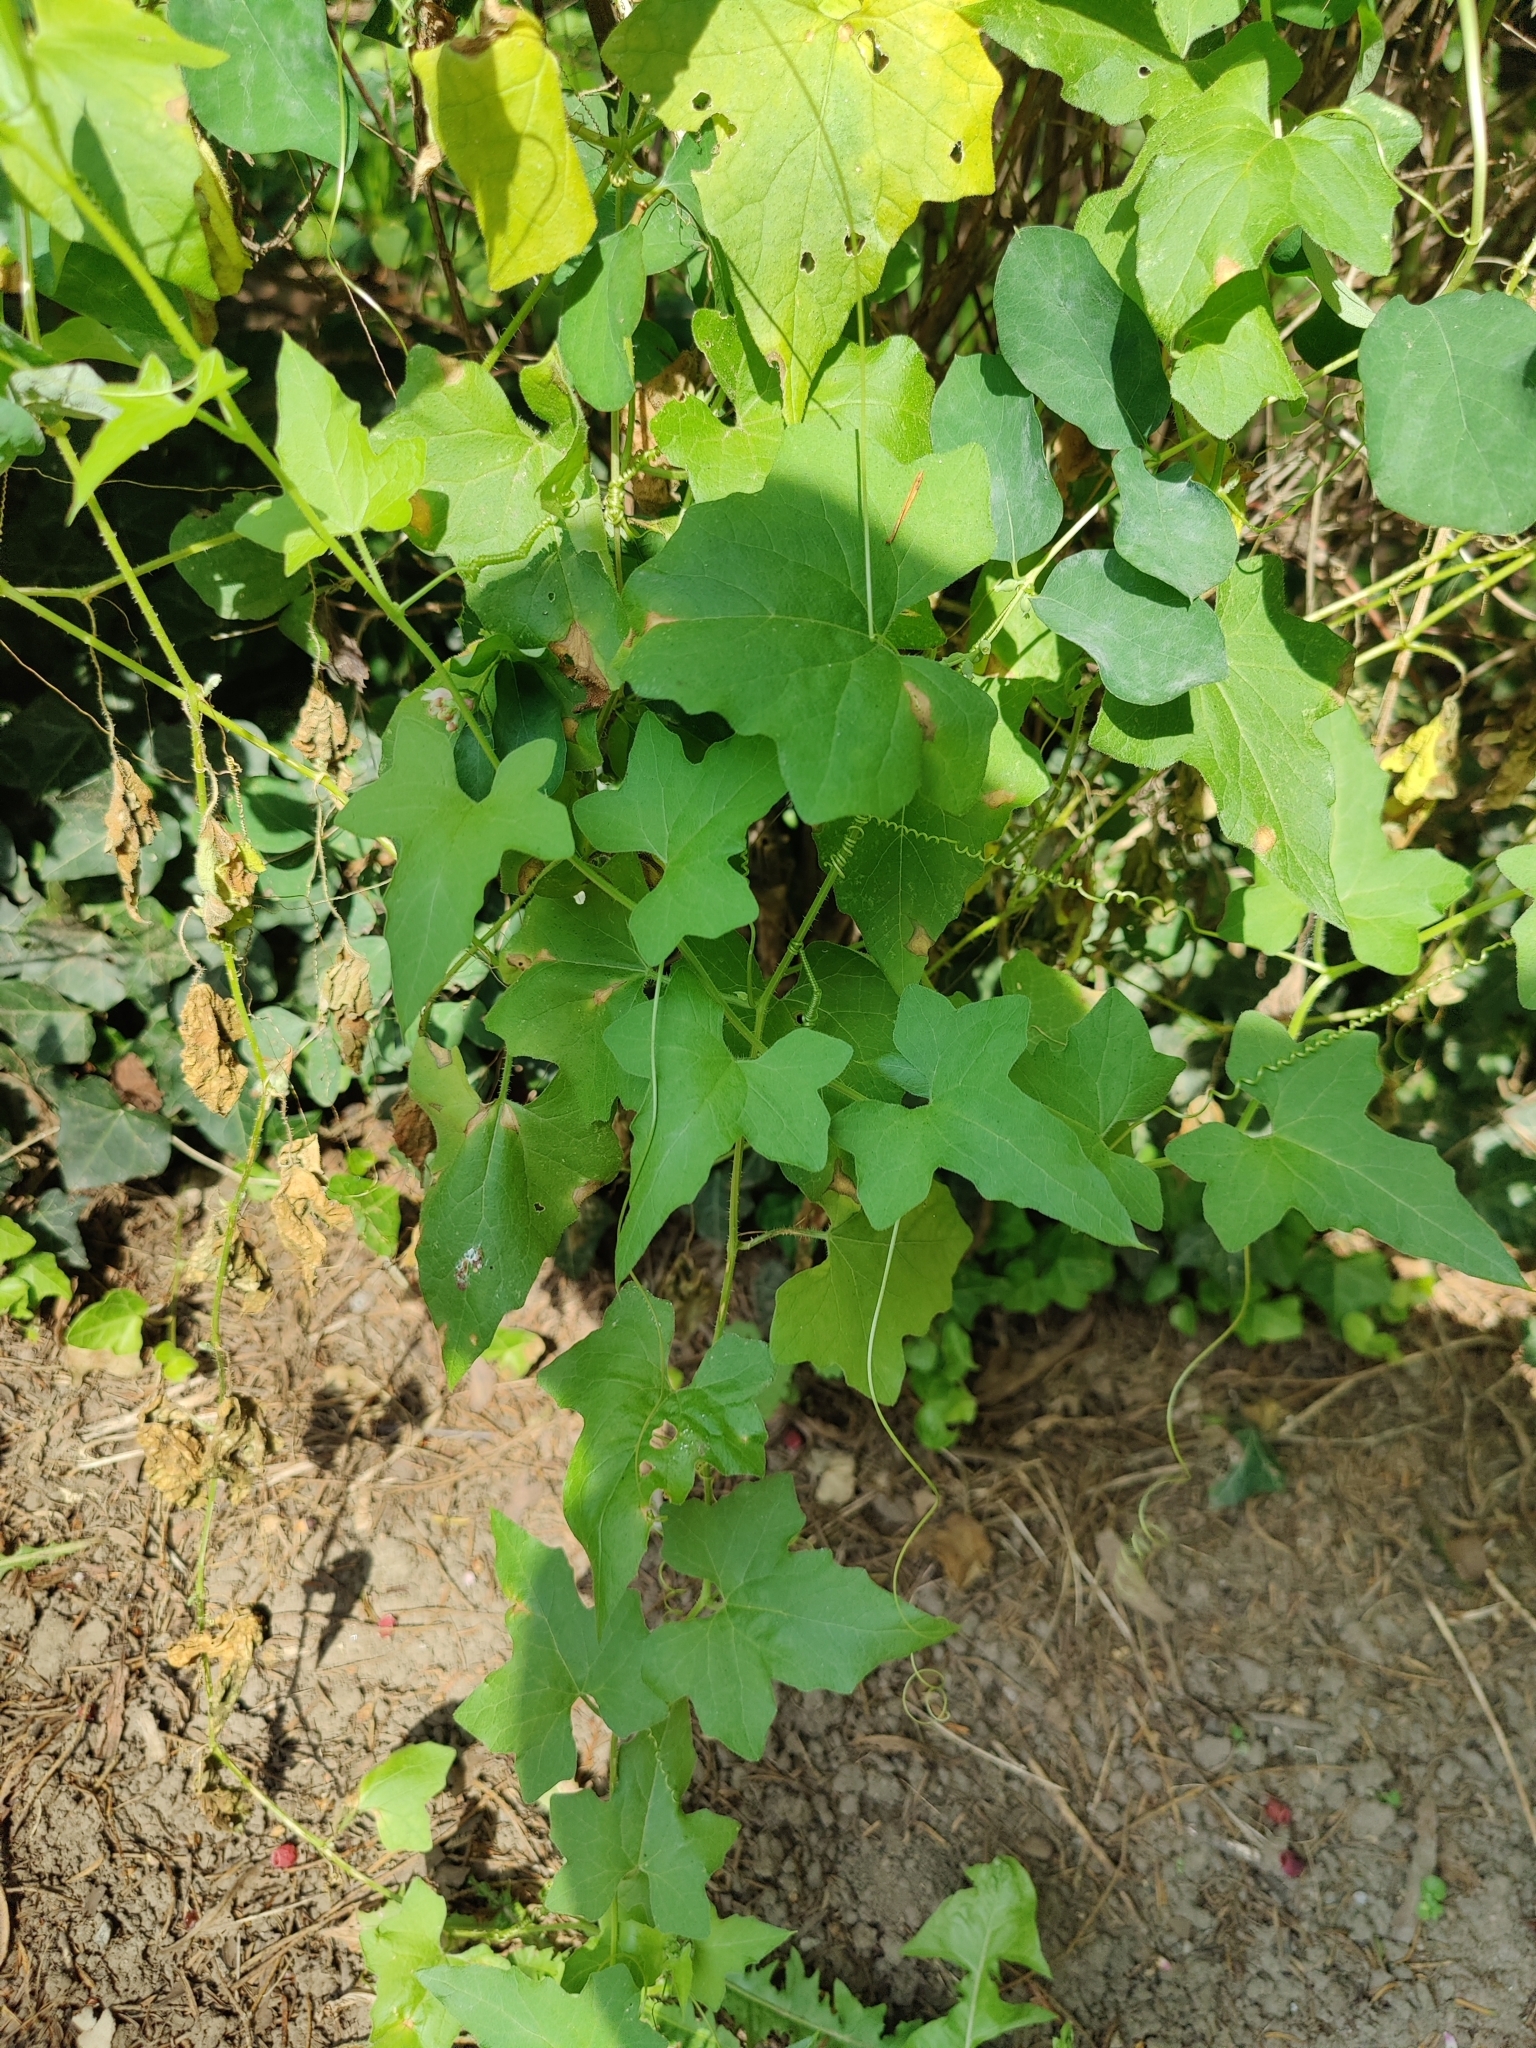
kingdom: Plantae
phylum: Tracheophyta
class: Magnoliopsida
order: Cucurbitales
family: Cucurbitaceae
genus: Bryonia
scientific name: Bryonia cretica
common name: Cretan bryony
